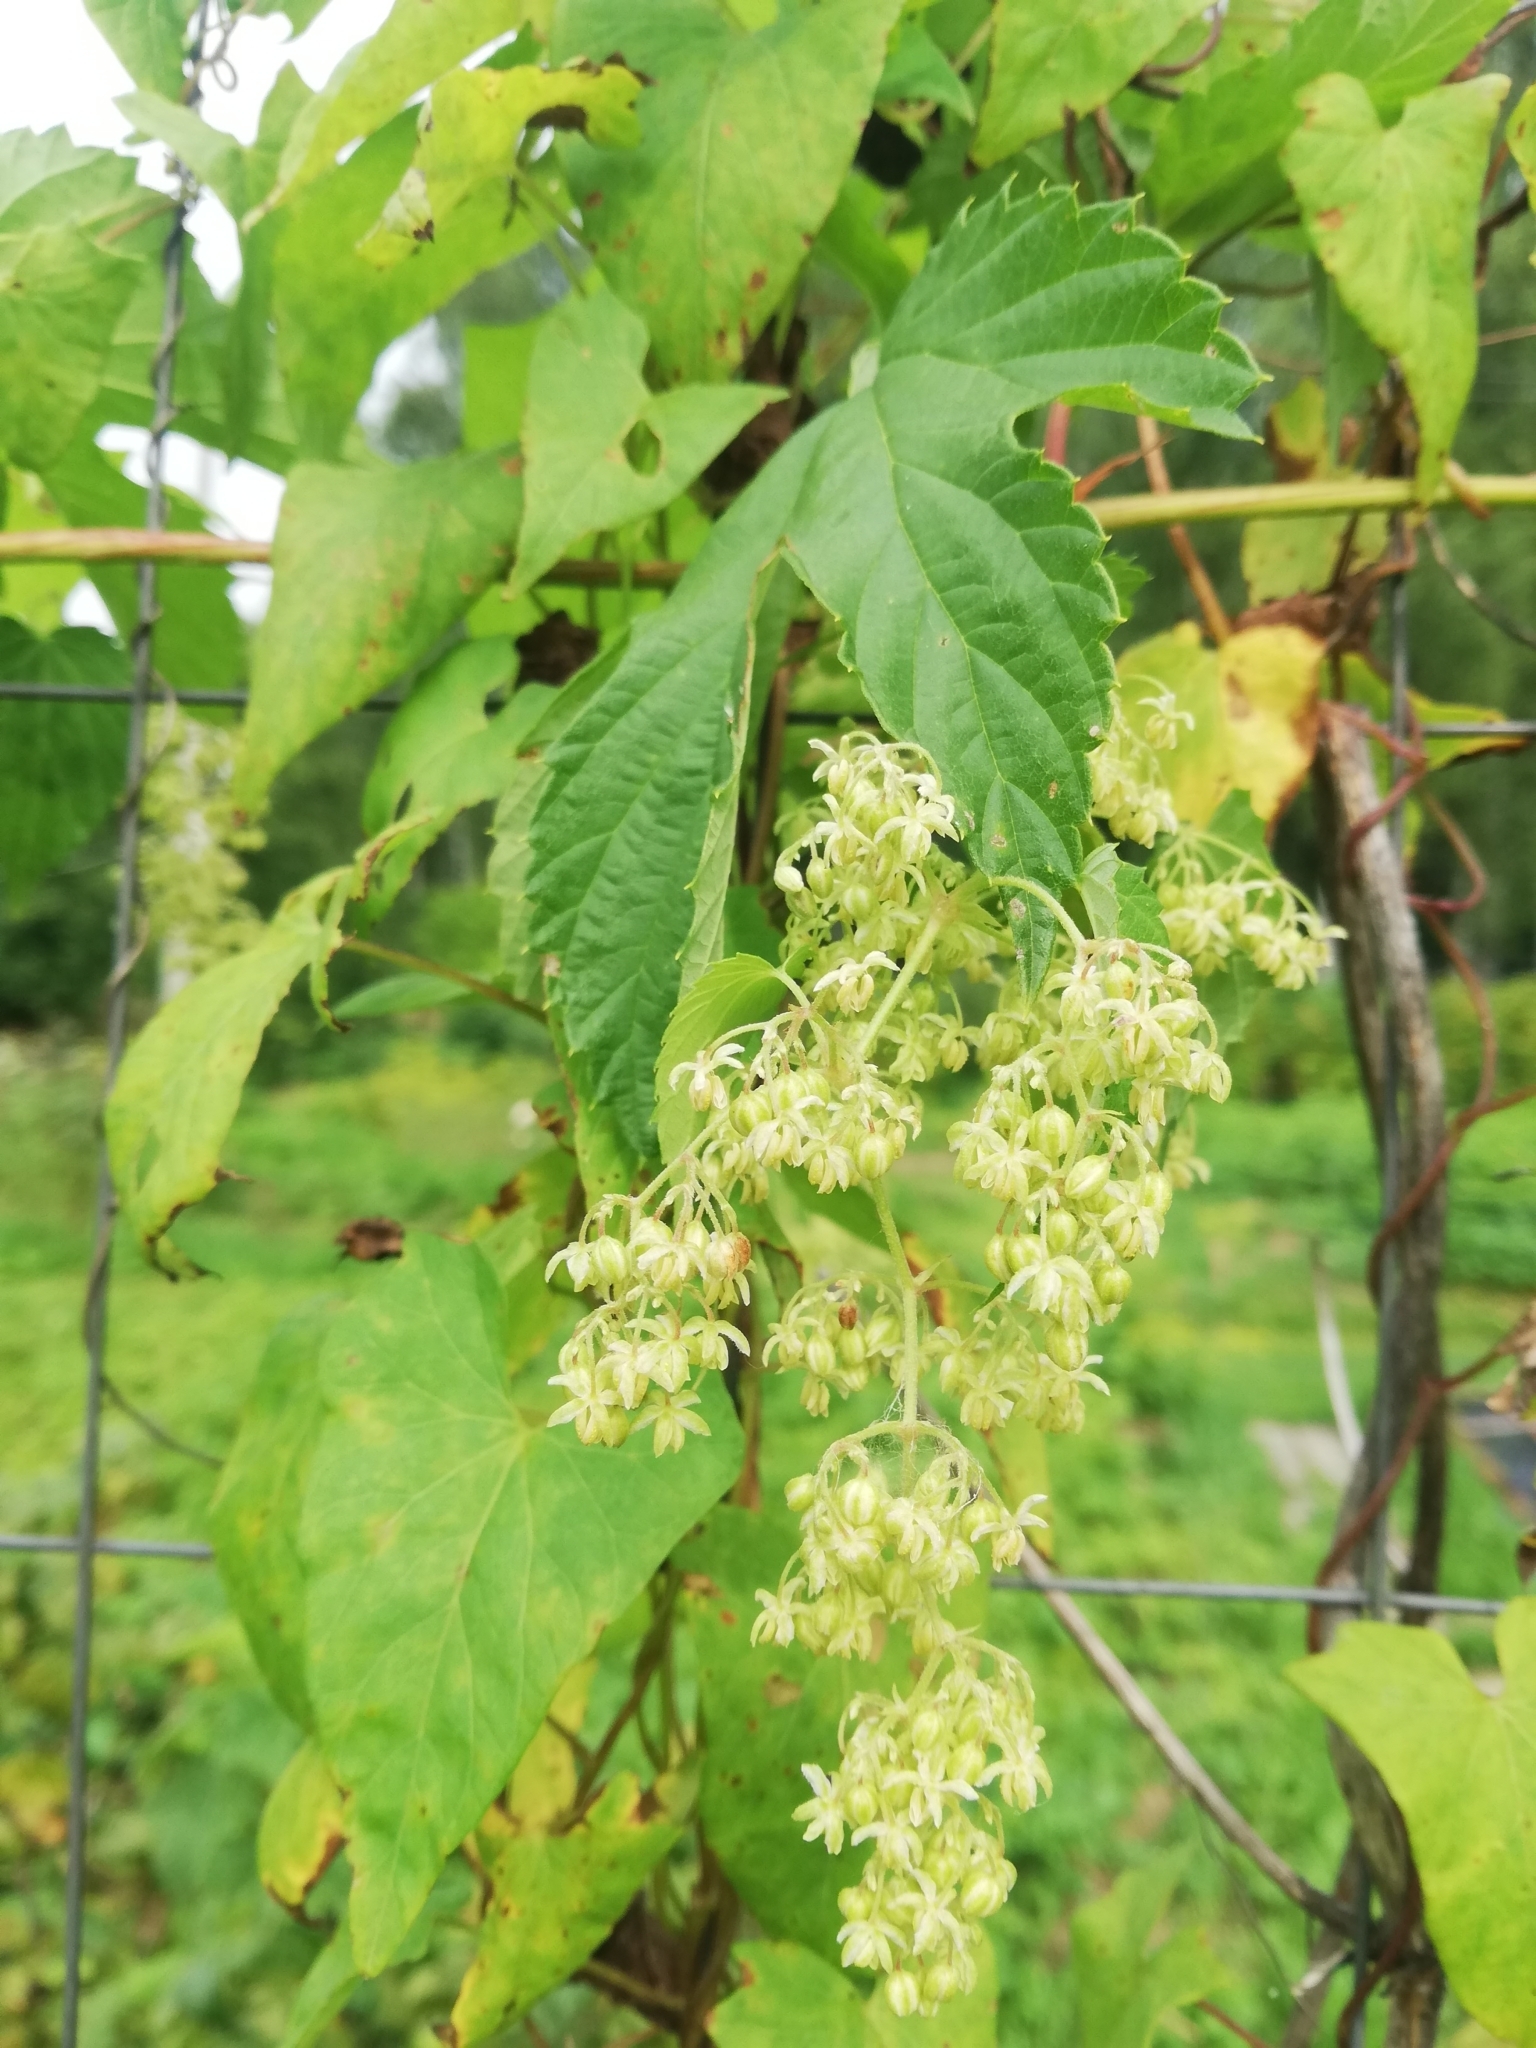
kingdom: Plantae
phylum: Tracheophyta
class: Magnoliopsida
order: Rosales
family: Cannabaceae
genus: Humulus
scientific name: Humulus lupulus
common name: Hop
